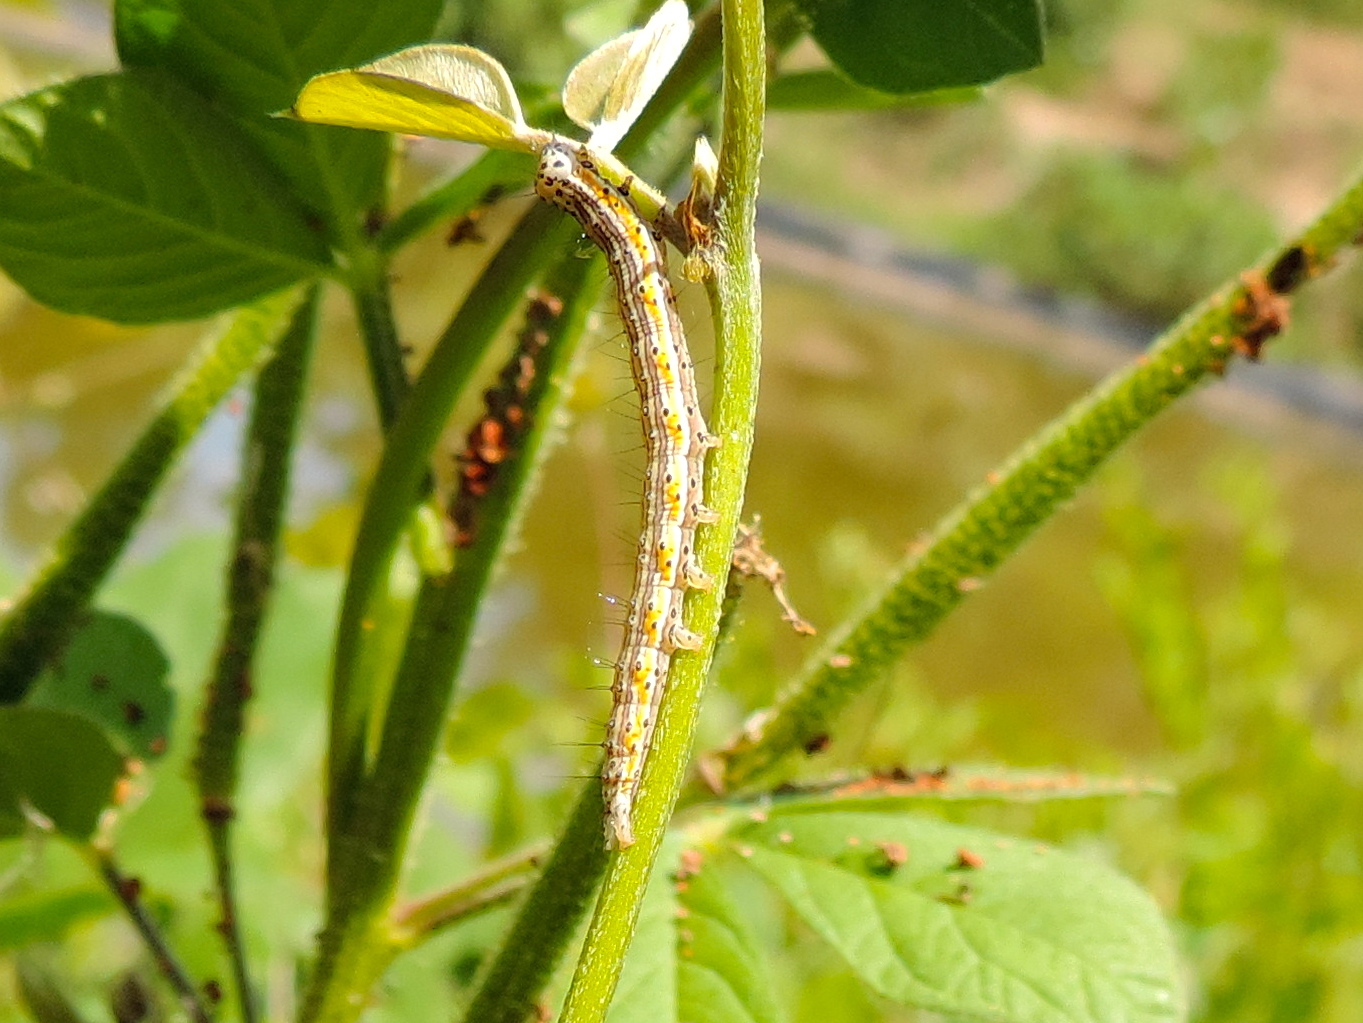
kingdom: Animalia
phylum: Arthropoda
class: Insecta
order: Lepidoptera
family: Erebidae
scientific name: Erebidae
